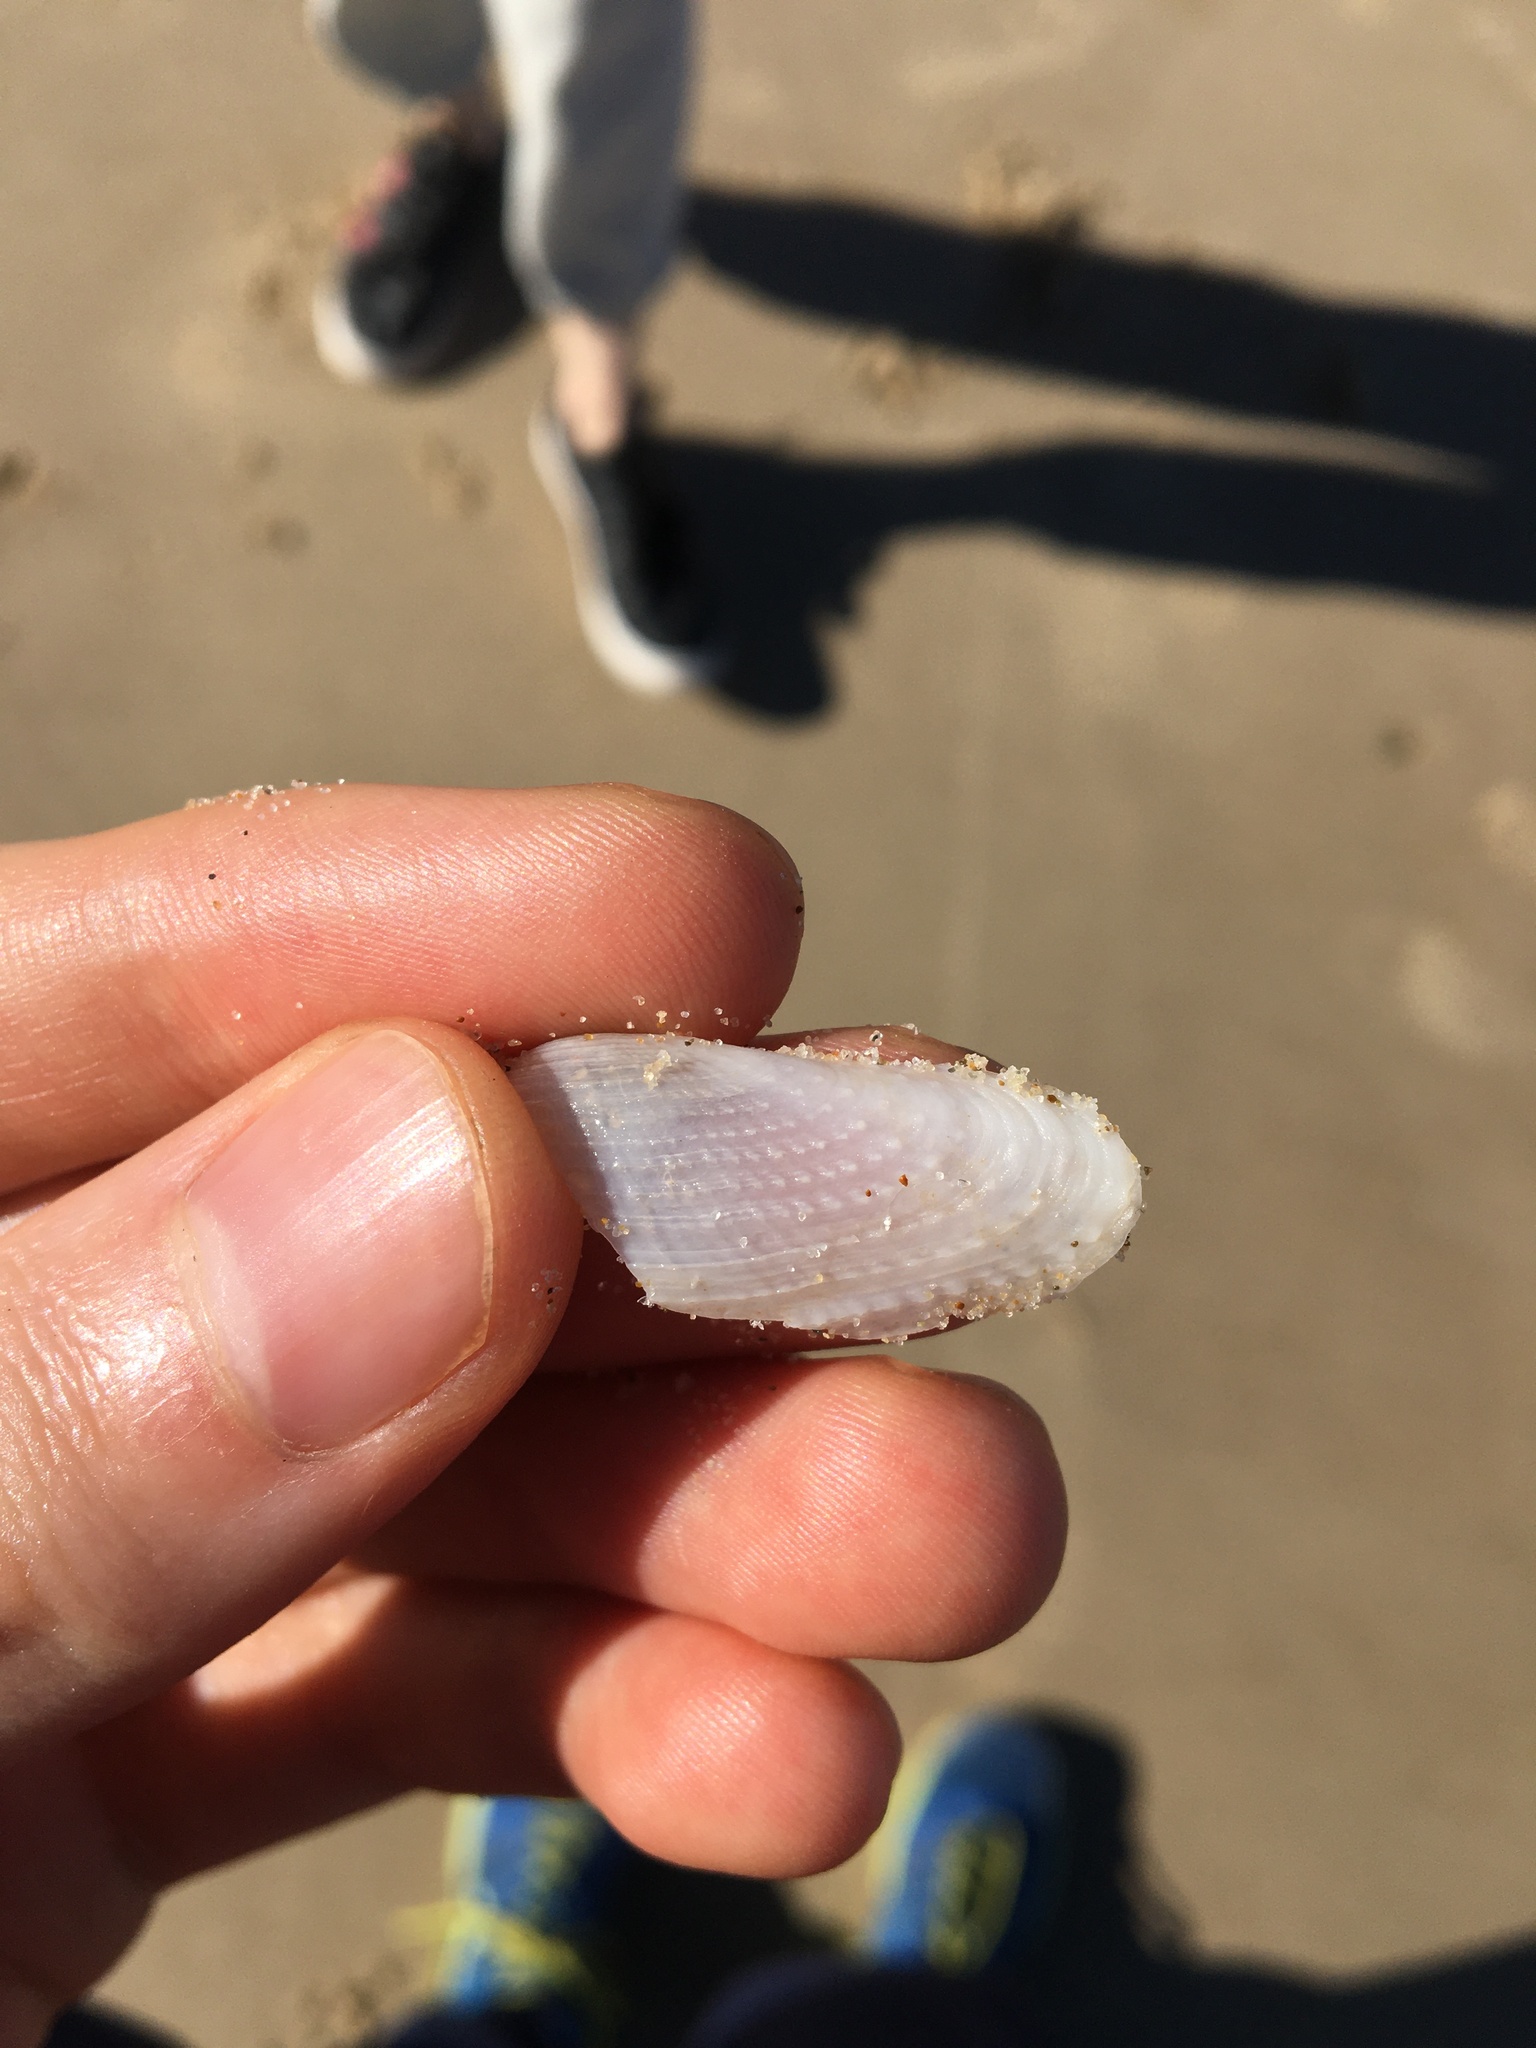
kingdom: Animalia
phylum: Mollusca
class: Bivalvia
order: Myida
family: Pholadidae
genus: Barnea
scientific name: Barnea australasiae
